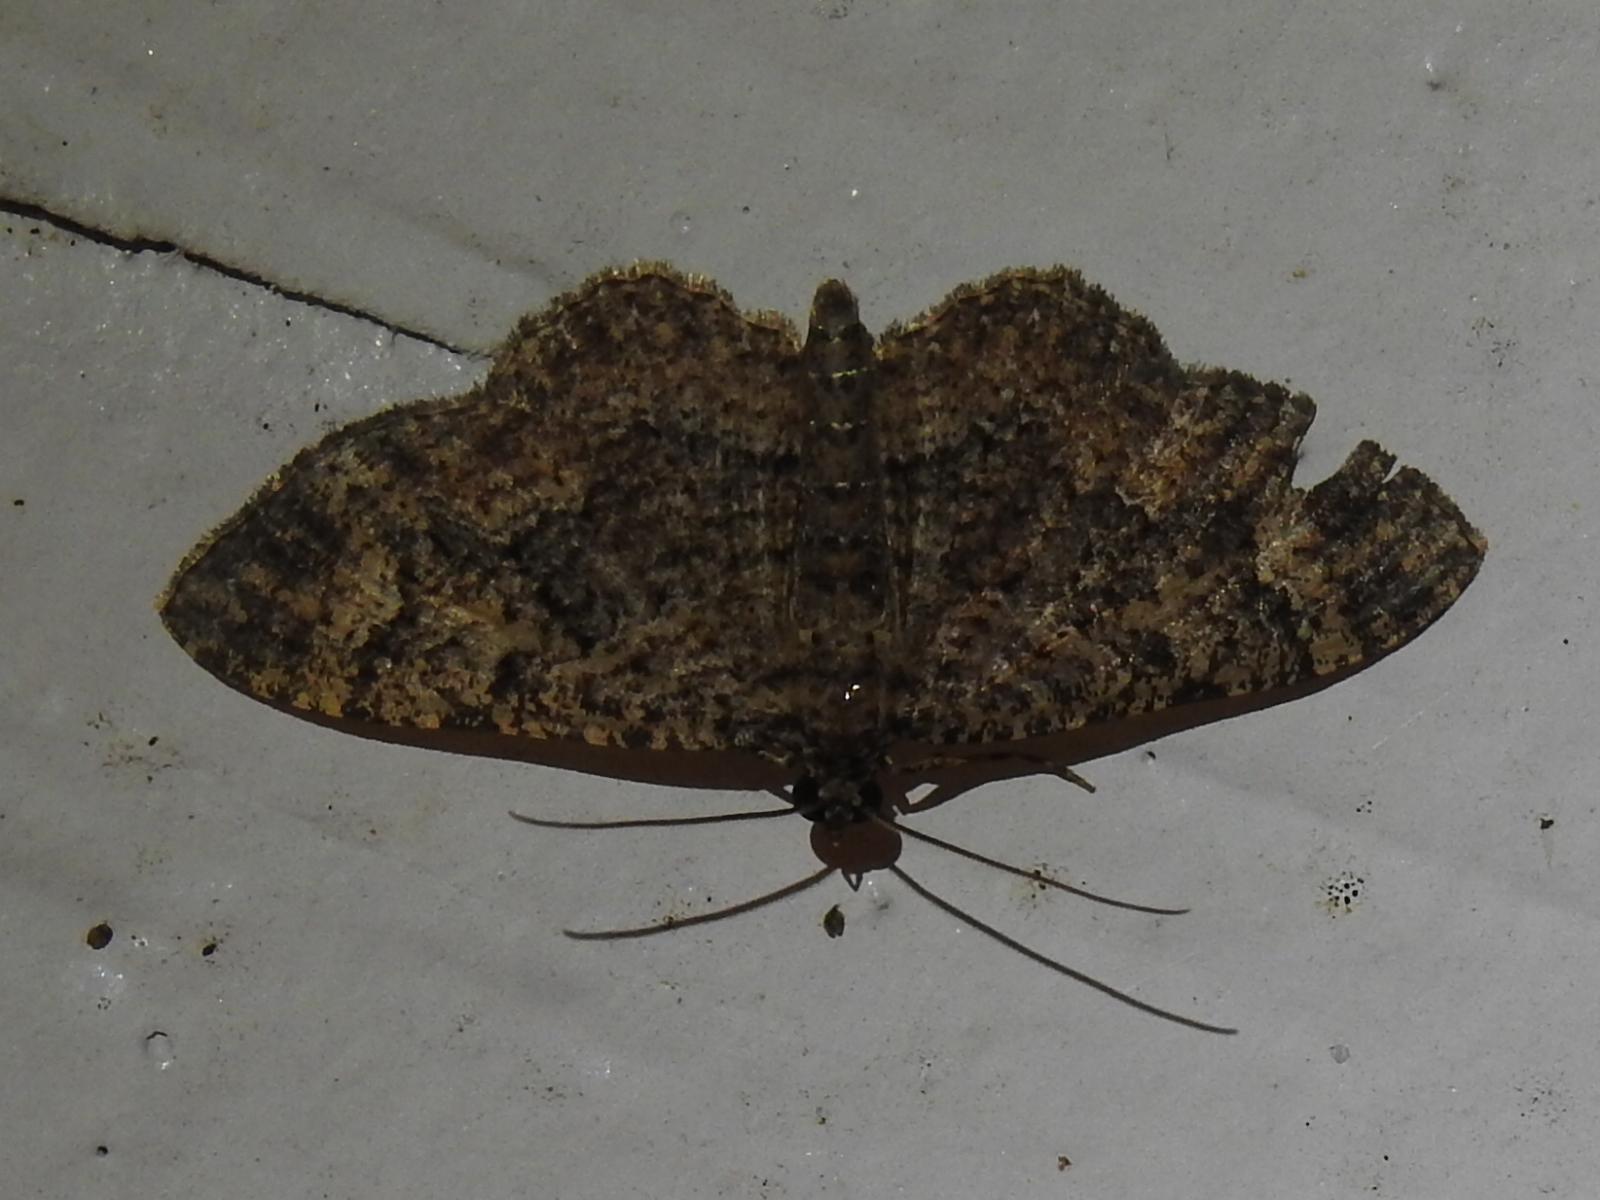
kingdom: Animalia
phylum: Arthropoda
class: Insecta
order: Lepidoptera
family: Geometridae
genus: Disclisioprocta
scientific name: Disclisioprocta stellata
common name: Somber carpet
